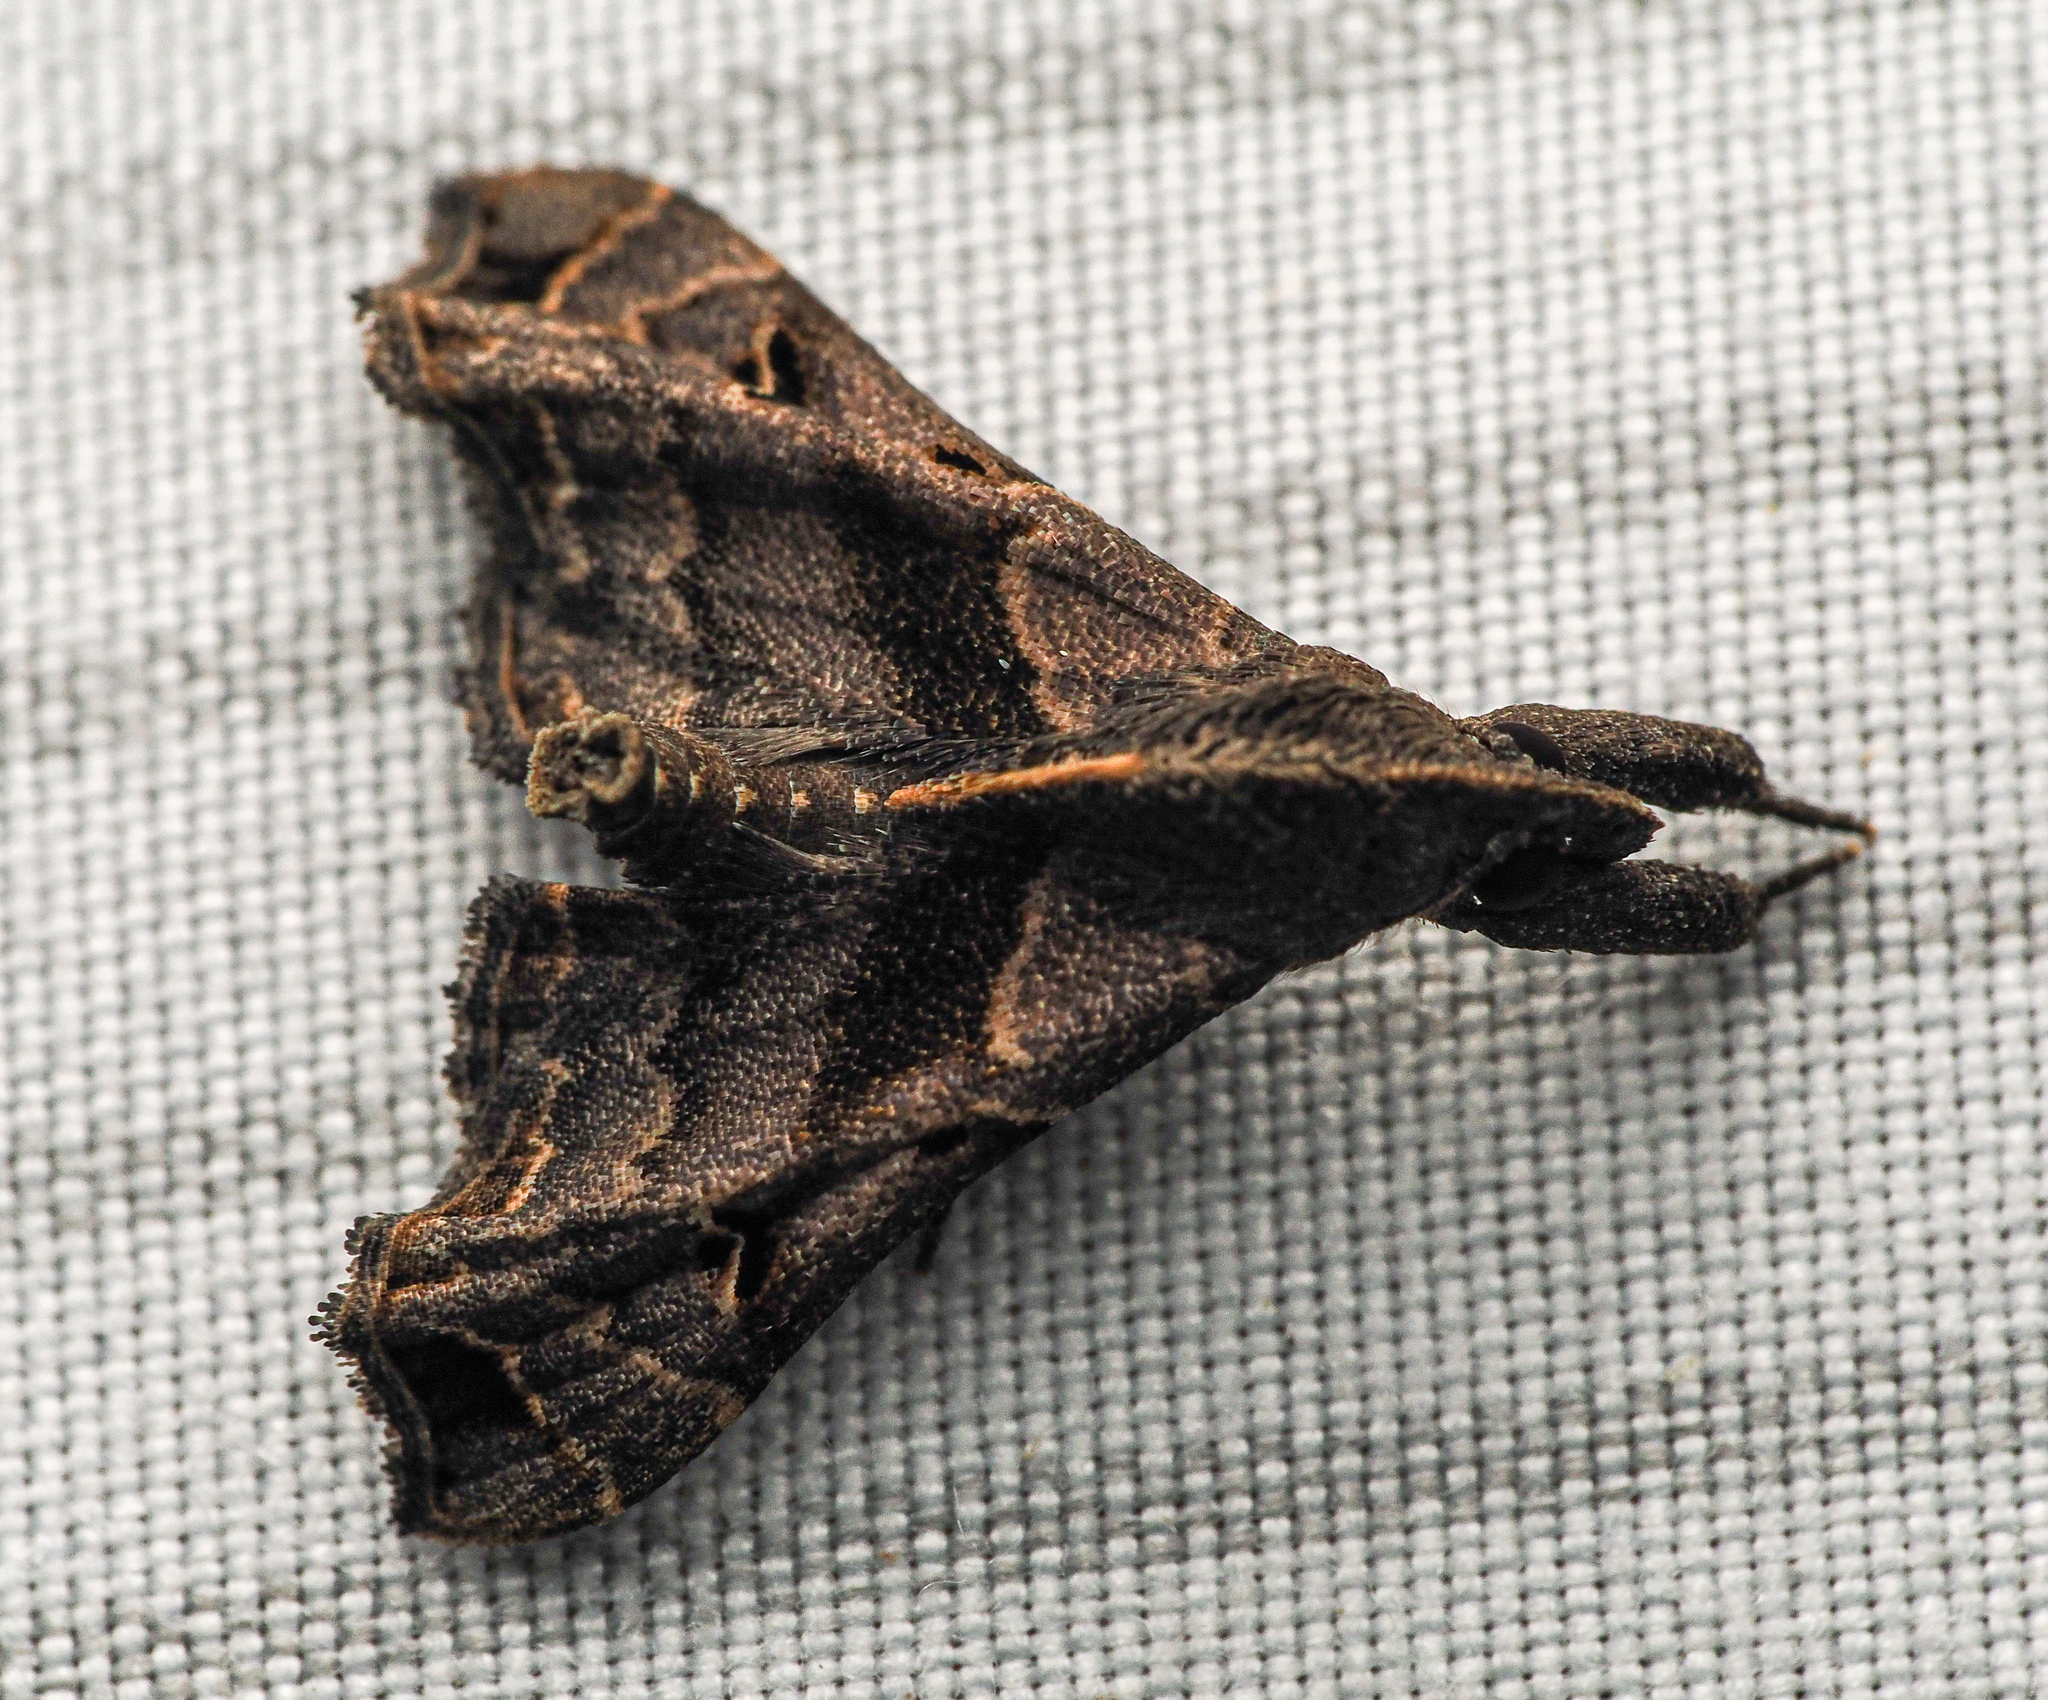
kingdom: Animalia
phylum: Arthropoda
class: Insecta
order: Lepidoptera
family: Erebidae
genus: Palthis
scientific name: Palthis asopialis
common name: Faint-spotted palthis moth
